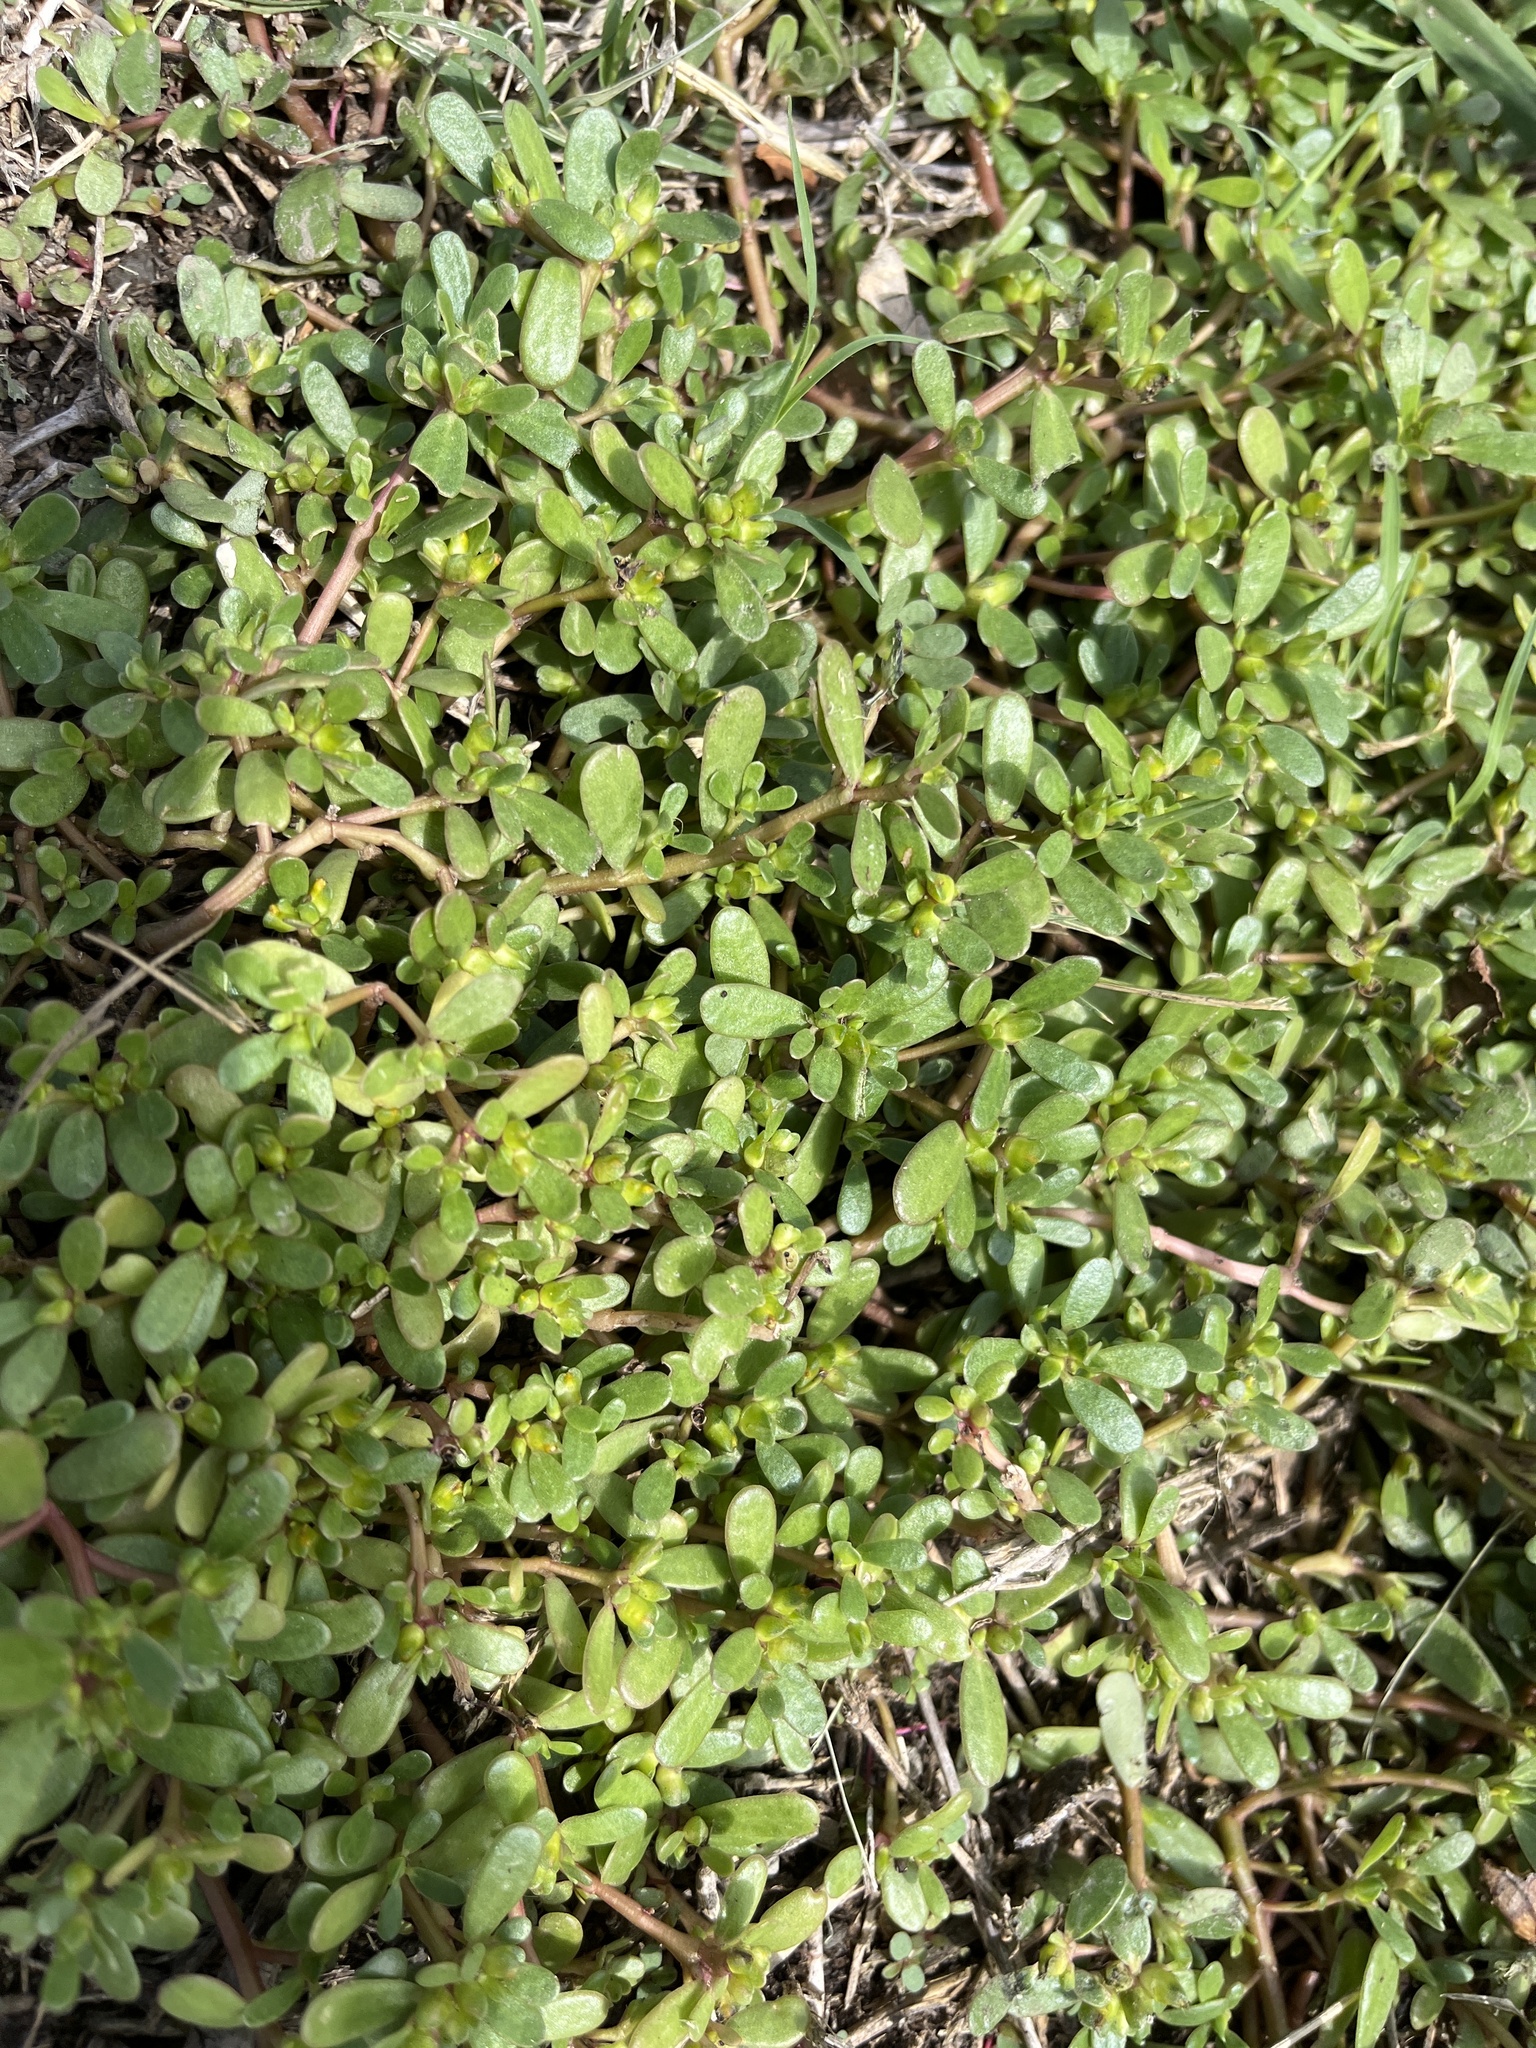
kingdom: Plantae
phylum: Tracheophyta
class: Magnoliopsida
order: Caryophyllales
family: Portulacaceae
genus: Portulaca
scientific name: Portulaca oleracea
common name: Common purslane
